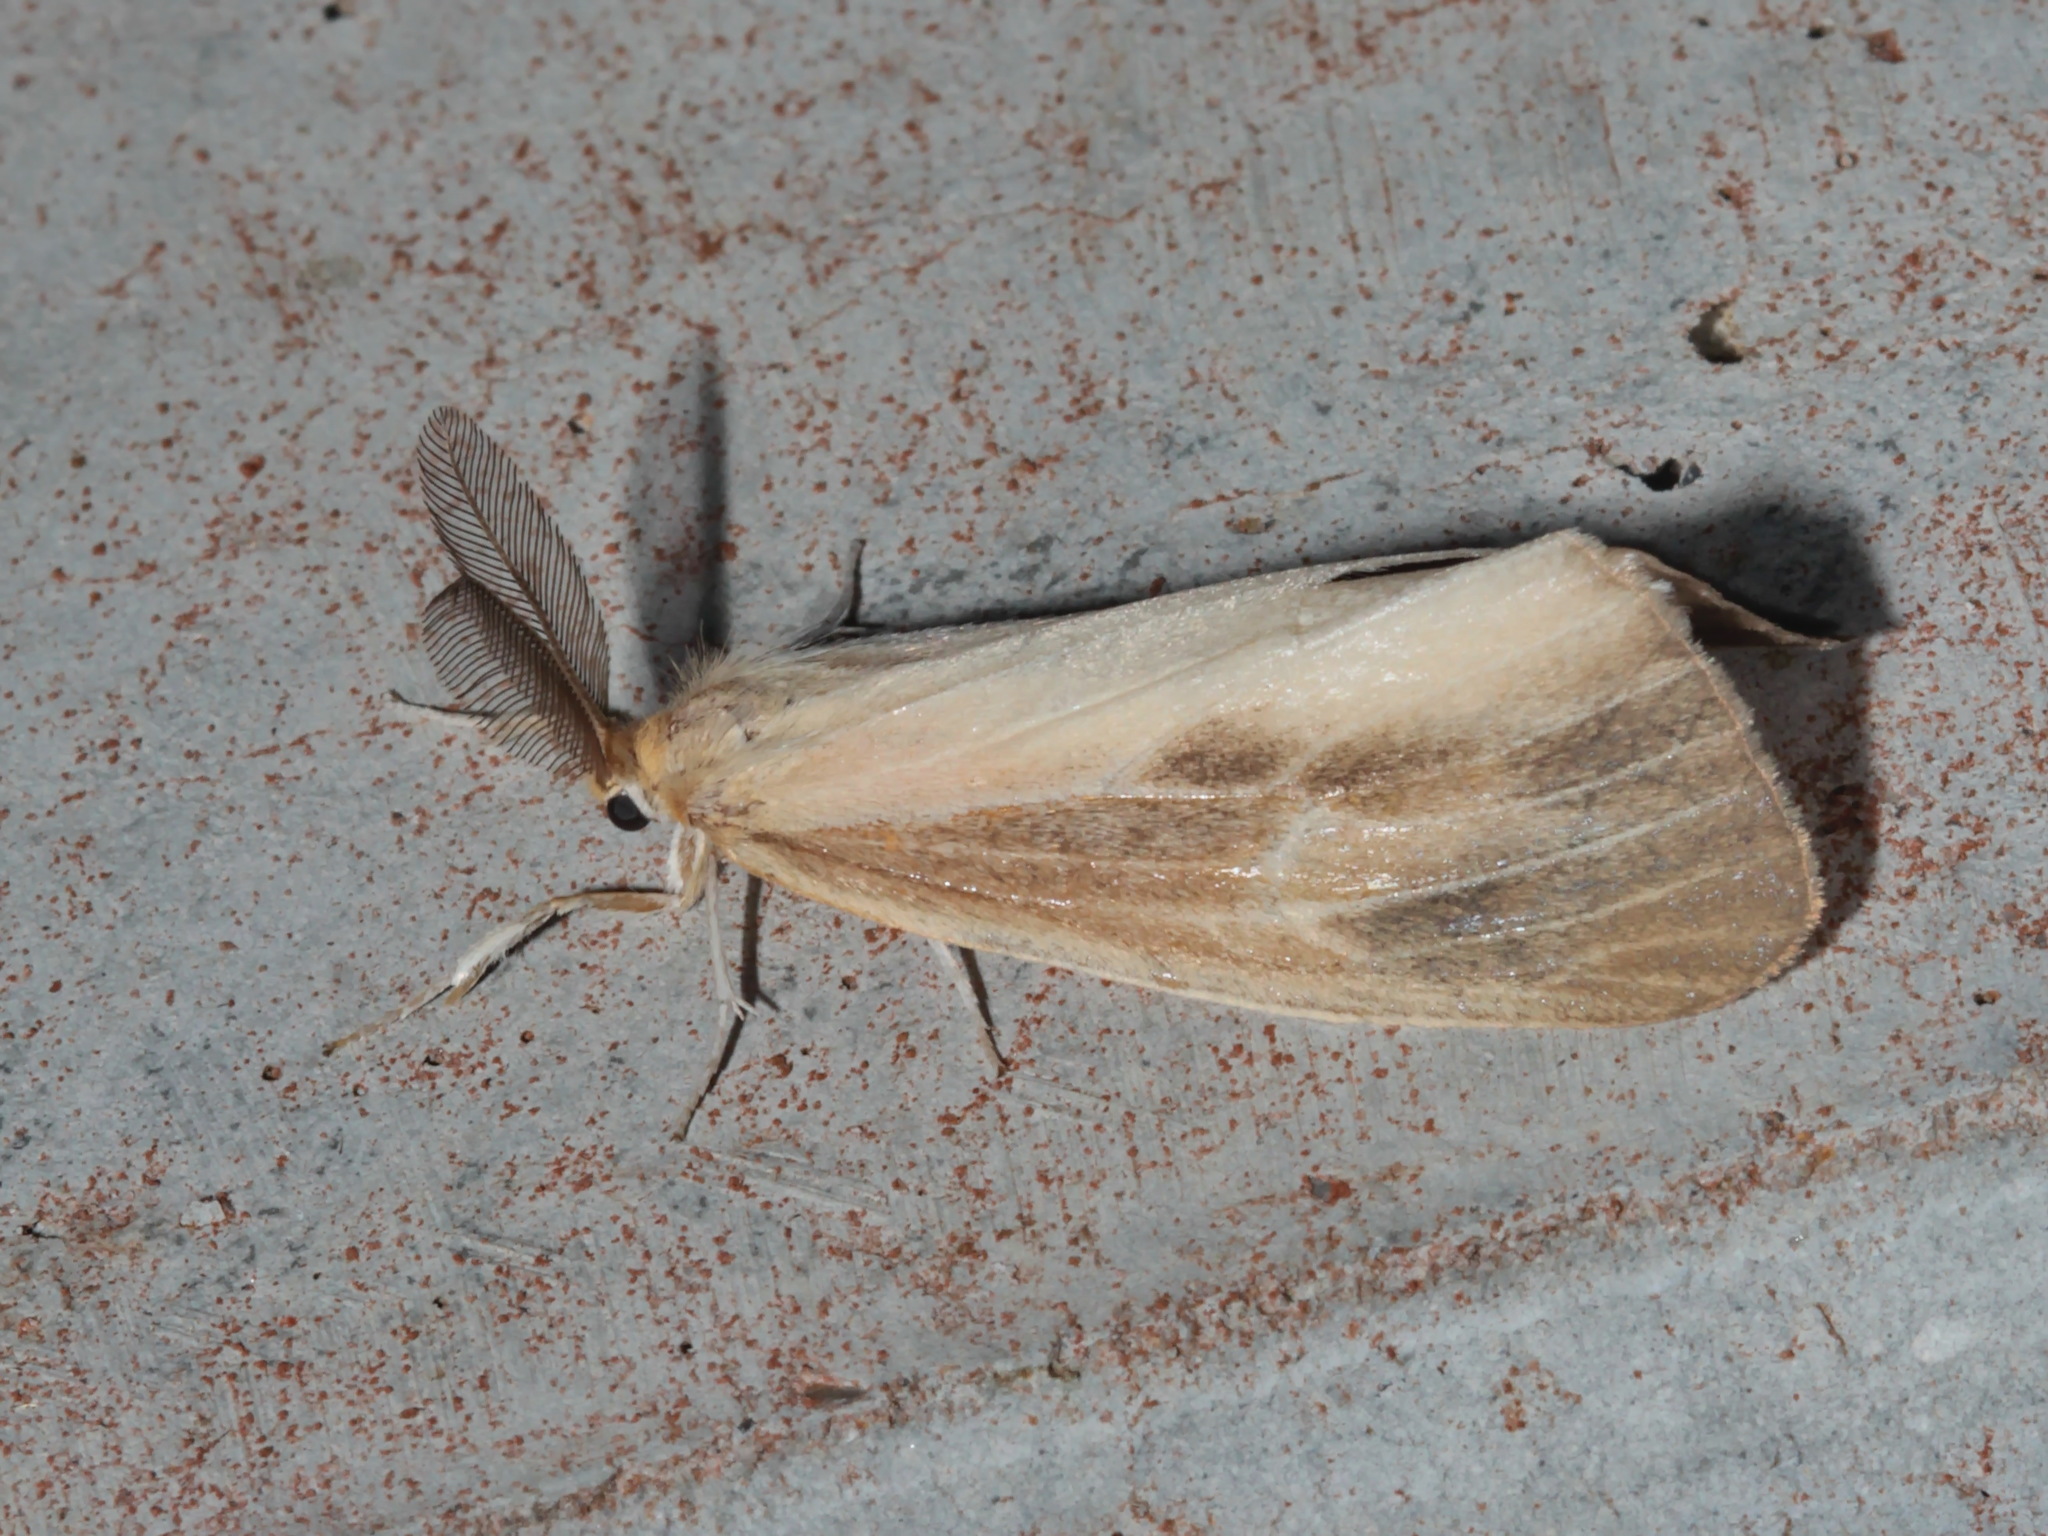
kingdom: Animalia
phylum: Arthropoda
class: Insecta
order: Lepidoptera
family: Erebidae
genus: Pantana
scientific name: Pantana visum
